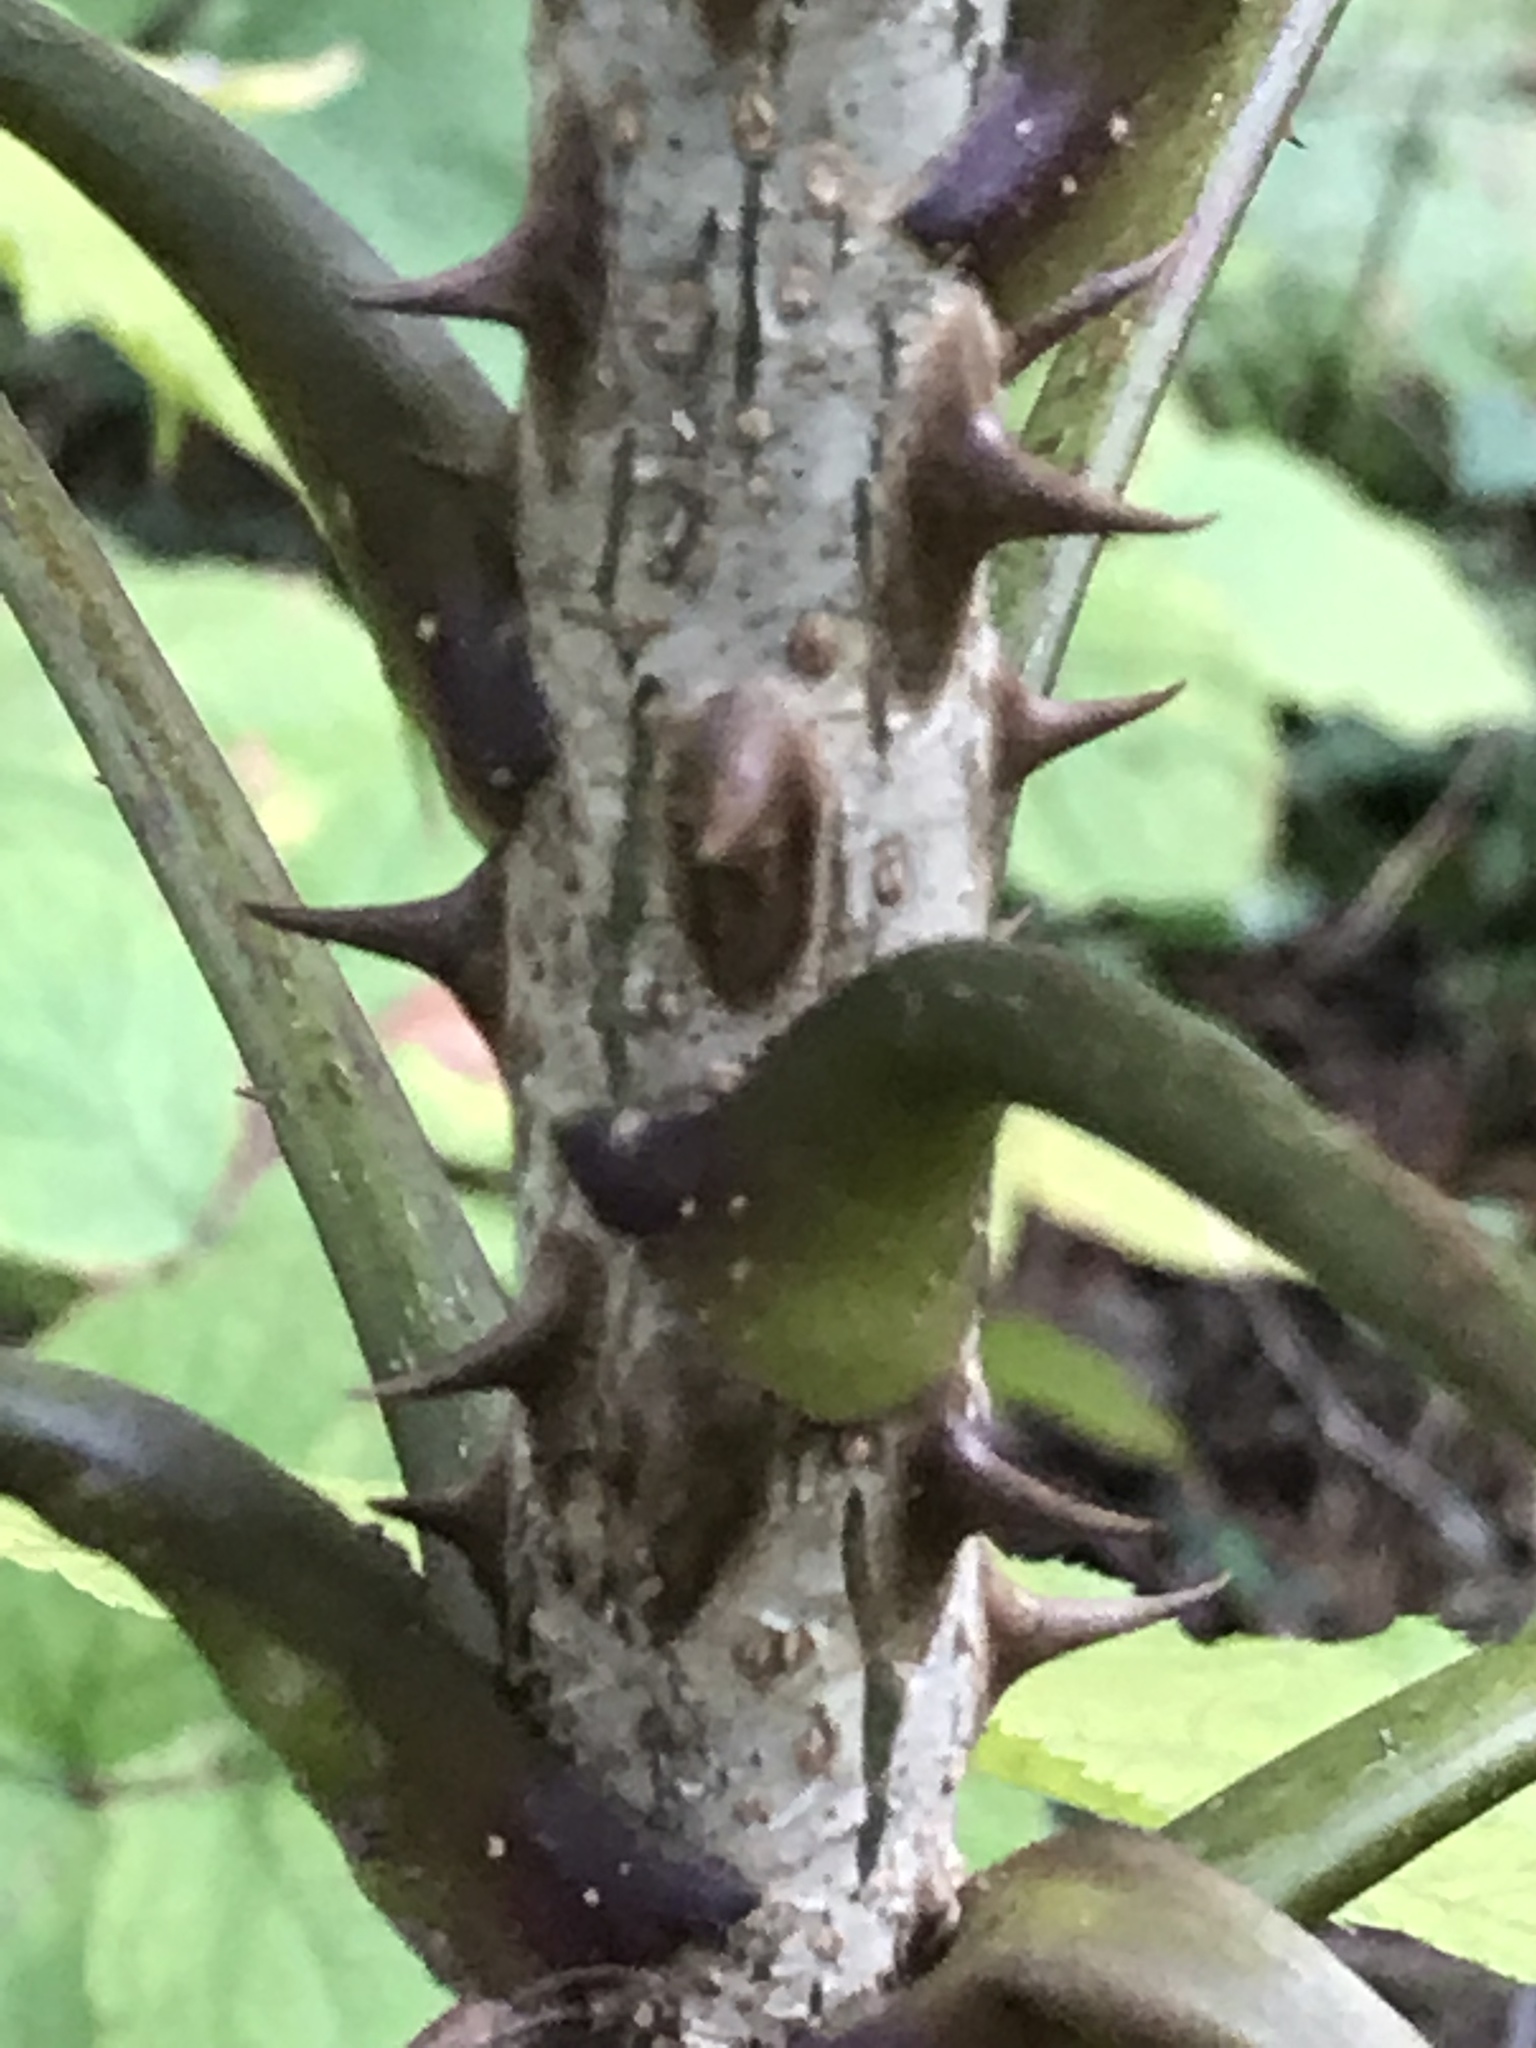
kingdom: Plantae
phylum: Tracheophyta
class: Magnoliopsida
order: Apiales
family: Araliaceae
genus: Kalopanax
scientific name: Kalopanax septemlobus
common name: Castor aralia
